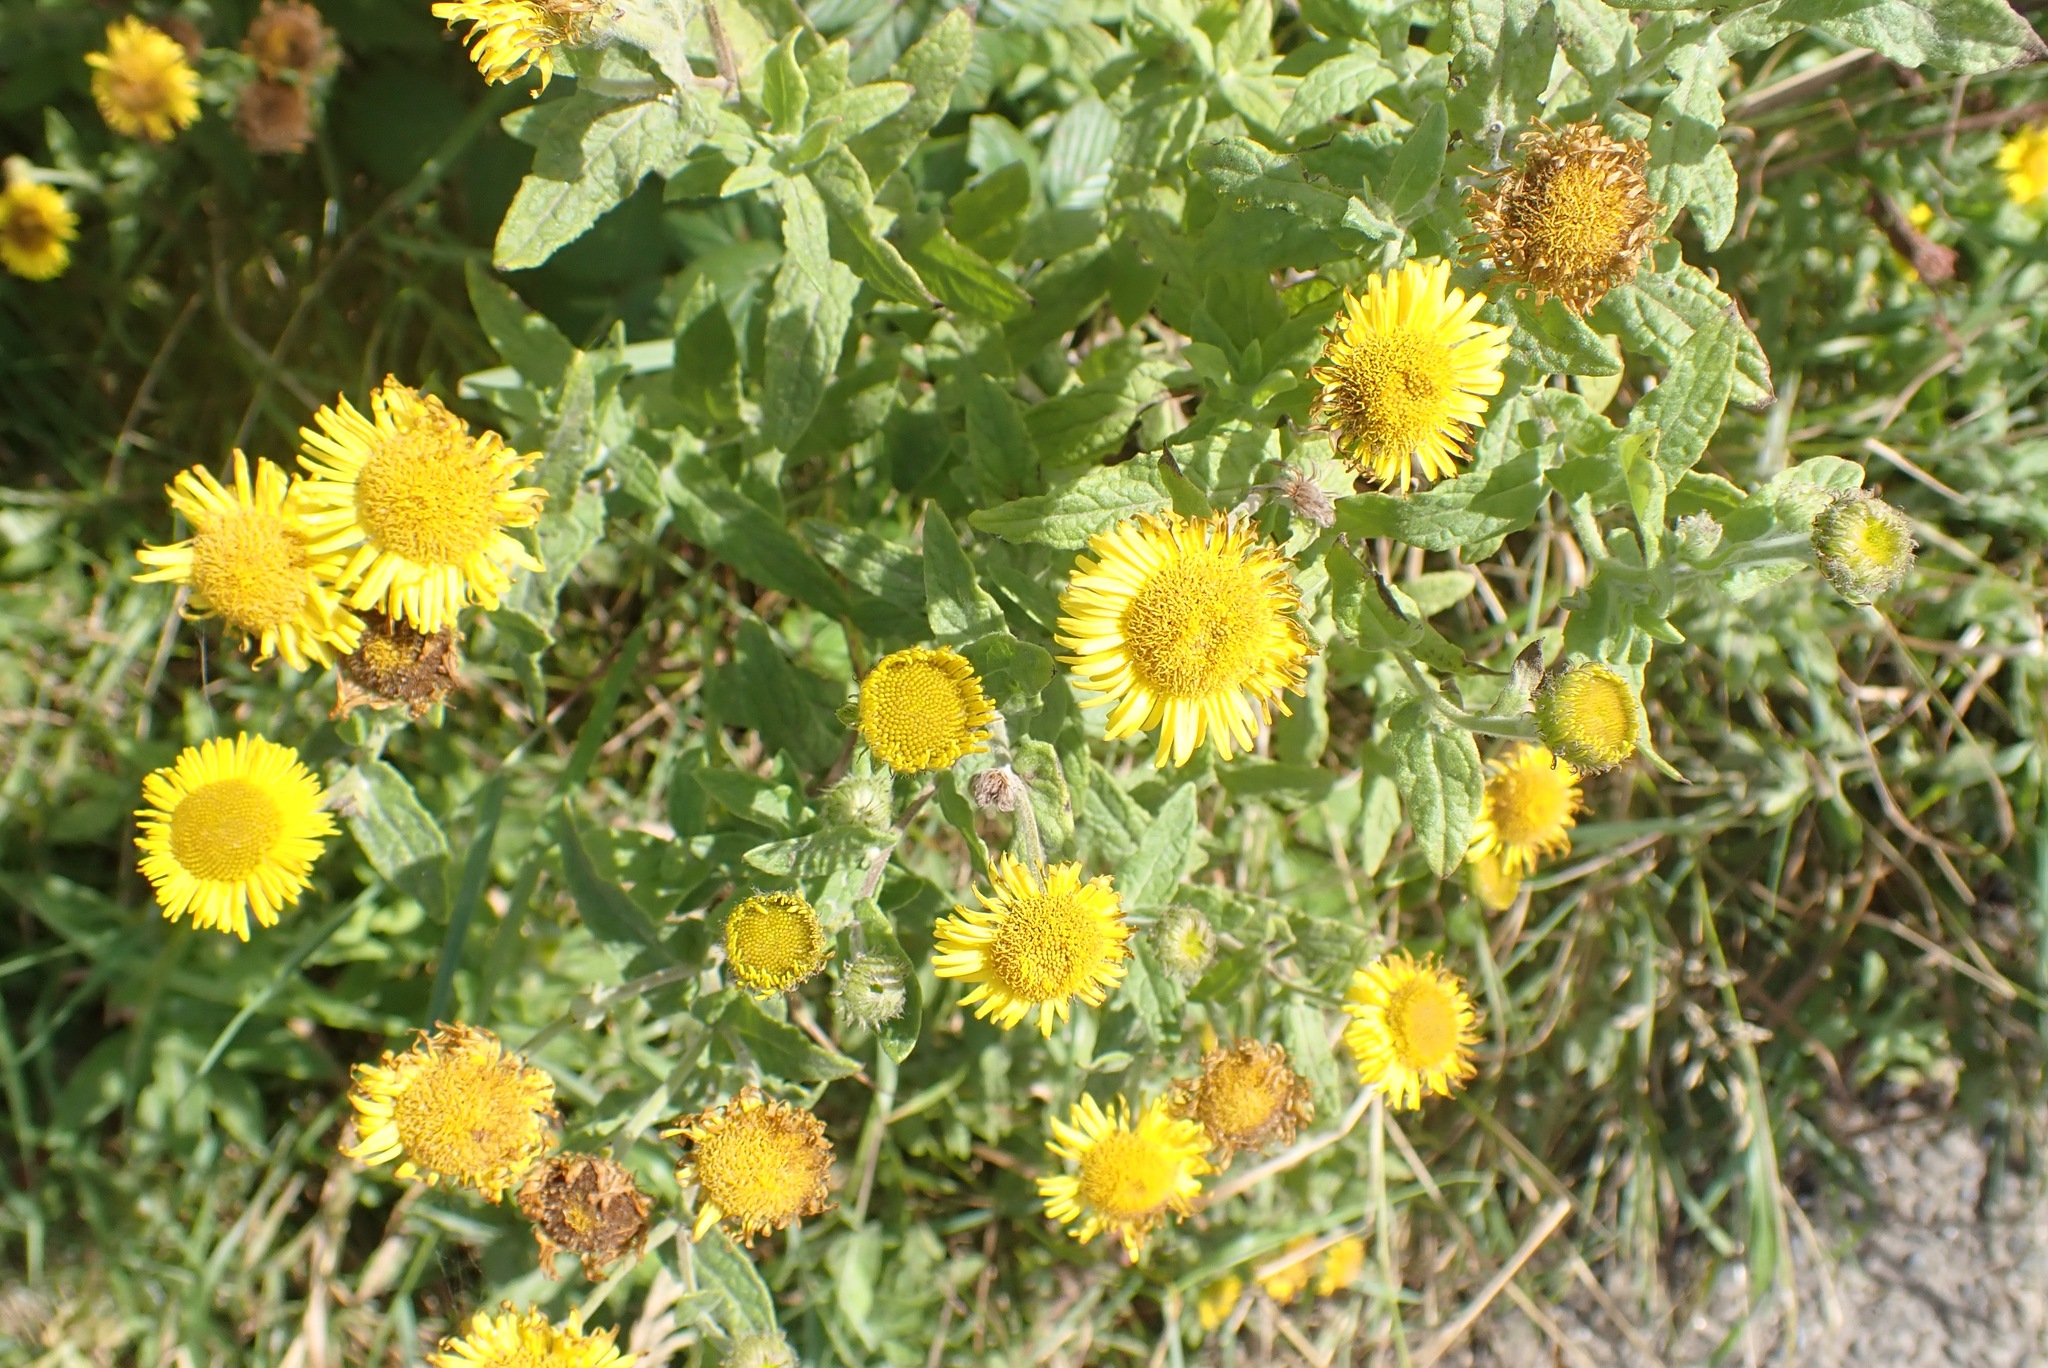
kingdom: Plantae
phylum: Tracheophyta
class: Magnoliopsida
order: Asterales
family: Asteraceae
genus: Pulicaria
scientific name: Pulicaria dysenterica
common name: Common fleabane
